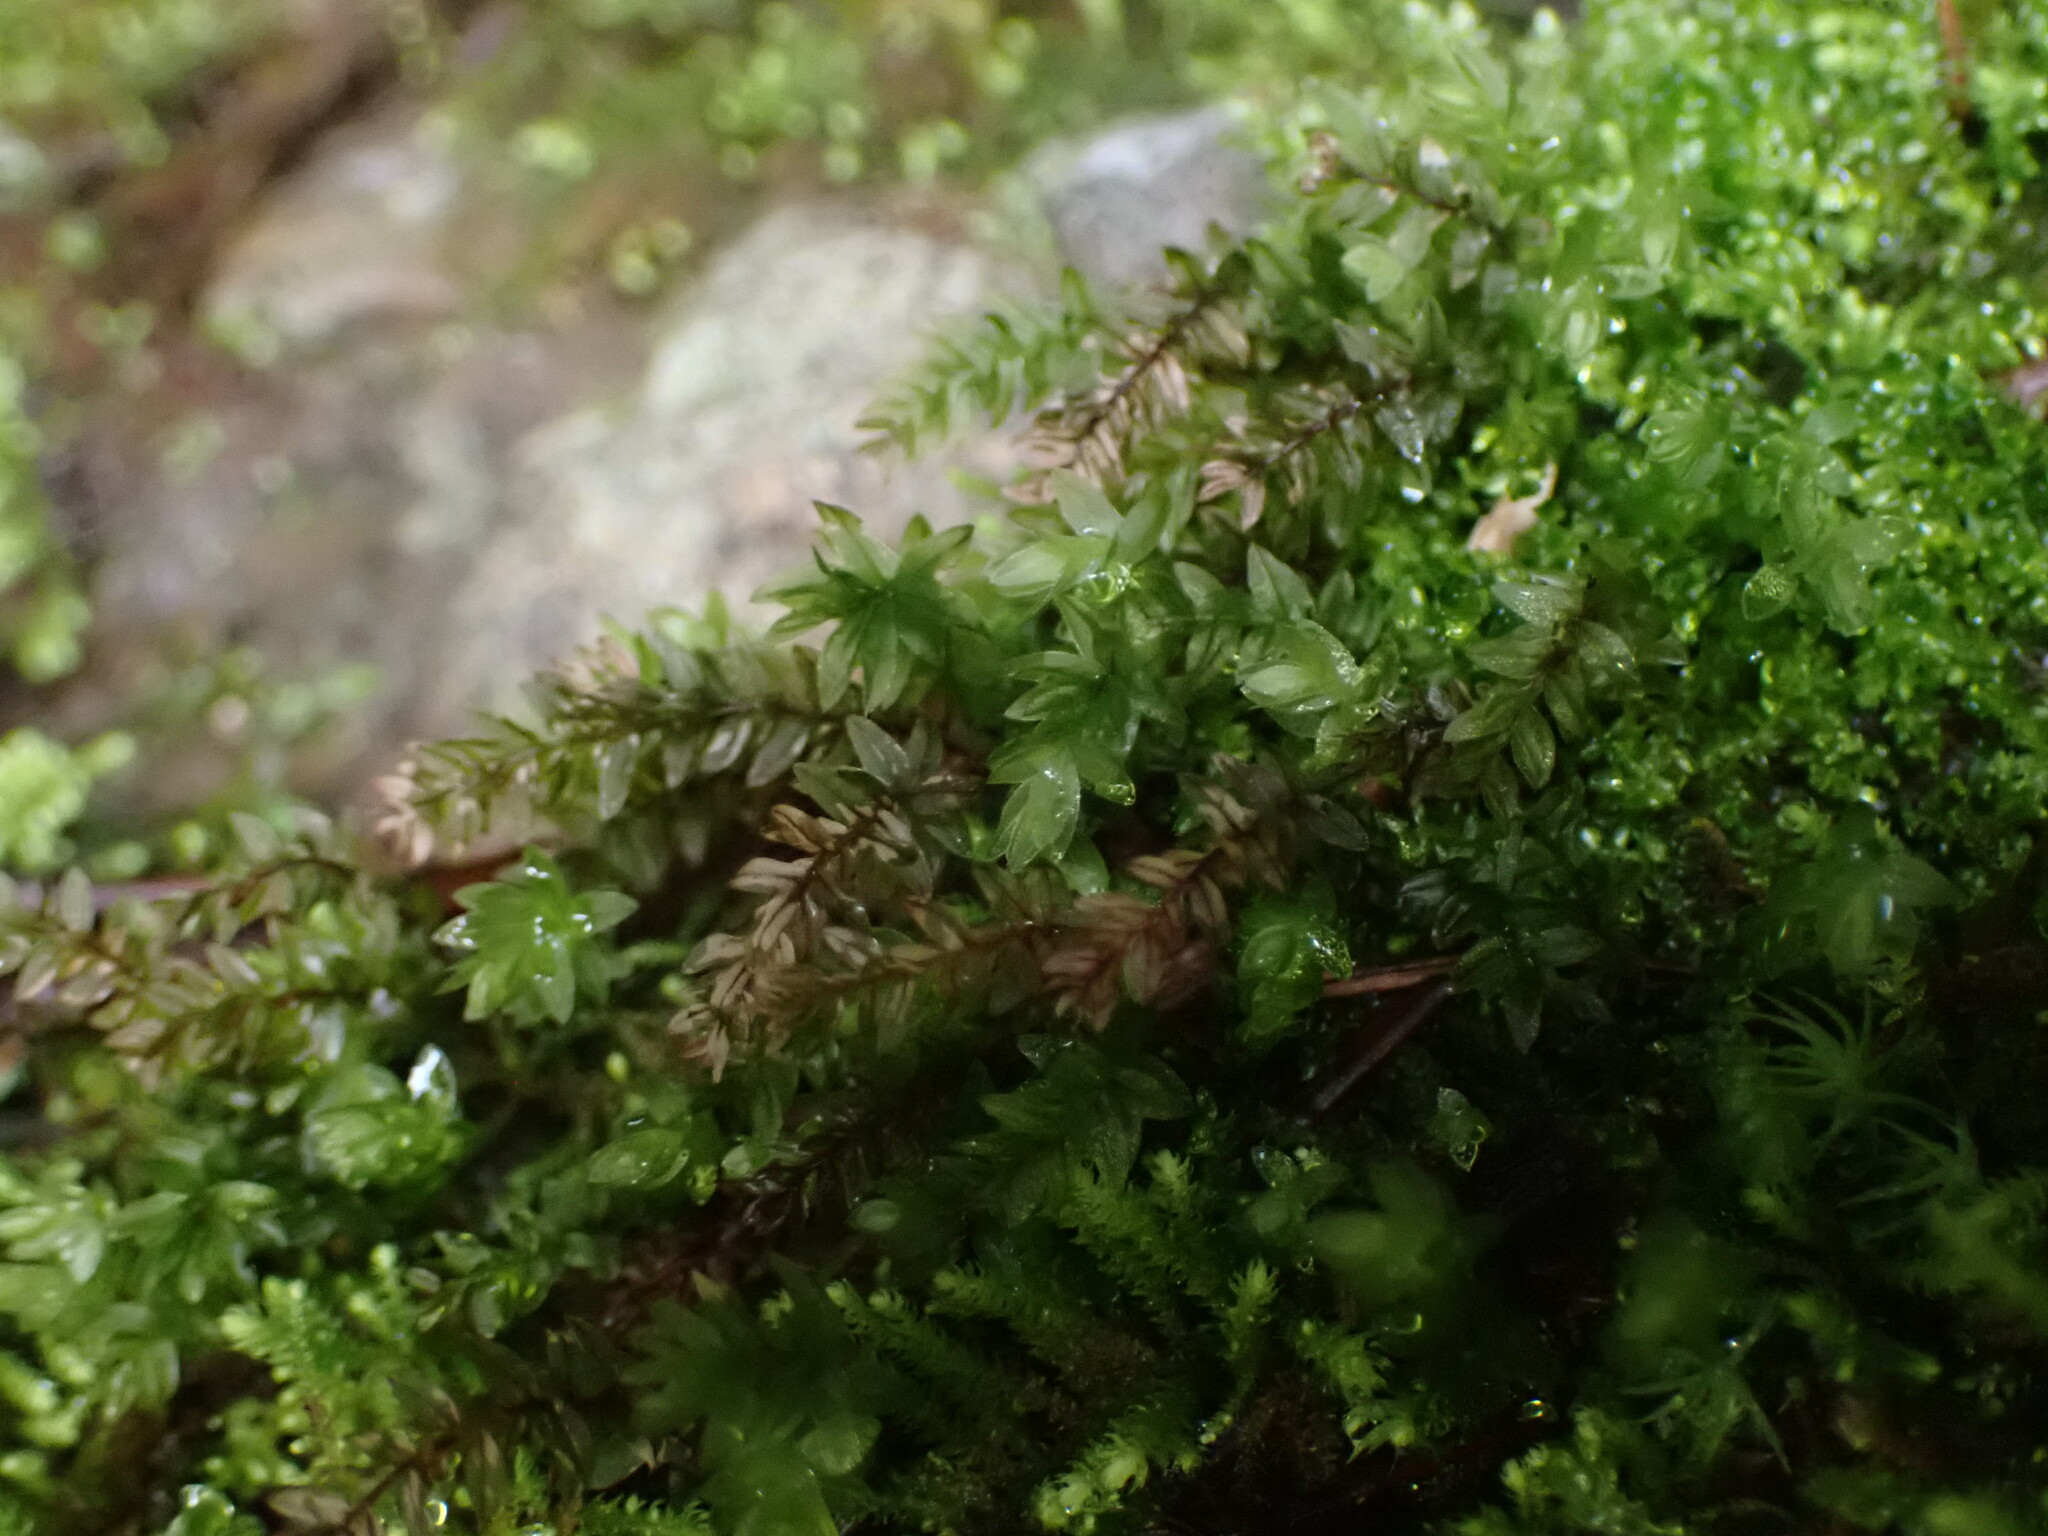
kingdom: Plantae
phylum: Bryophyta
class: Bryopsida
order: Bryales
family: Mniaceae
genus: Mnium
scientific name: Mnium spinulosum
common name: Red-mouthed leafy moss
